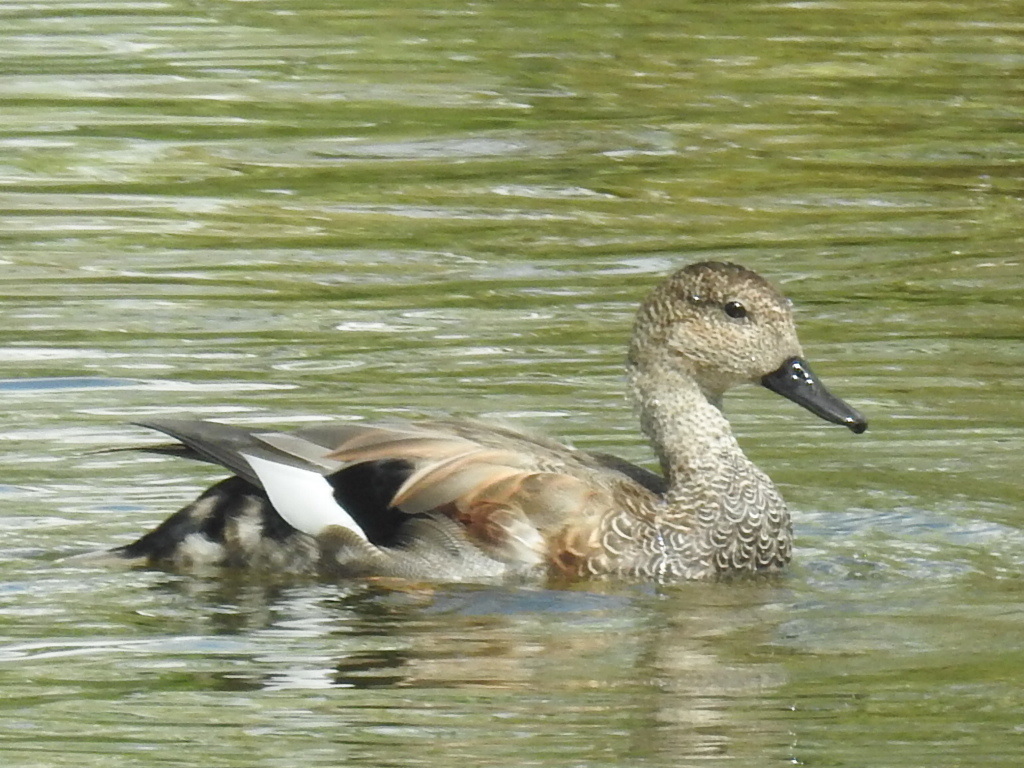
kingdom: Animalia
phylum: Chordata
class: Aves
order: Anseriformes
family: Anatidae
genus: Mareca
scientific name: Mareca strepera
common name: Gadwall
